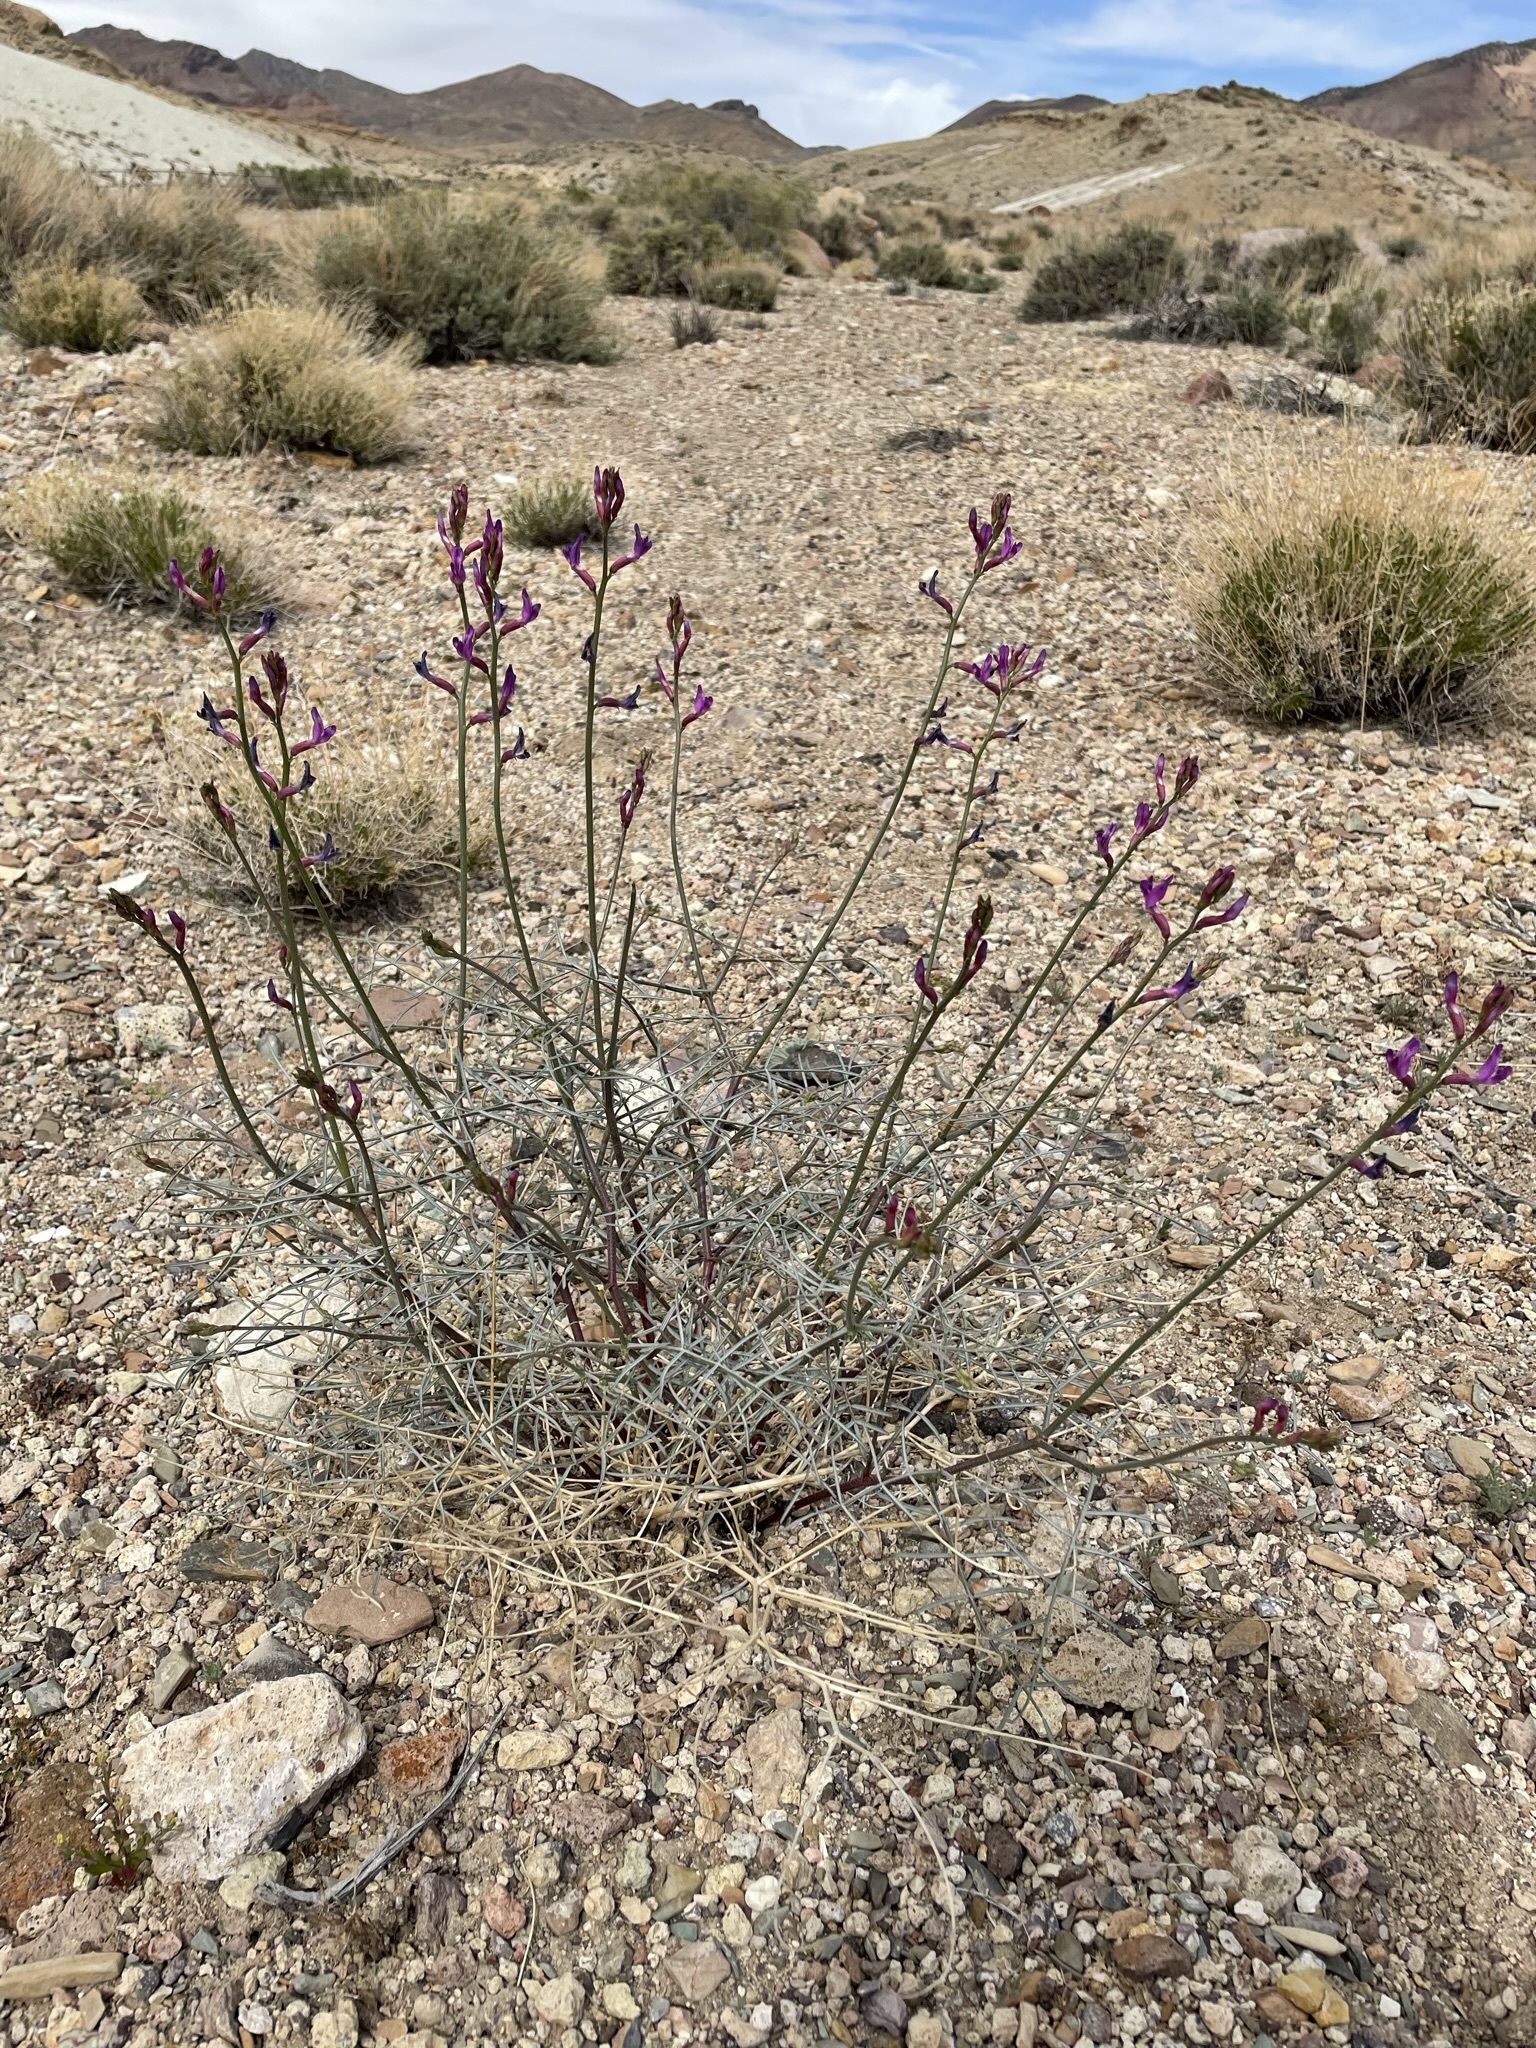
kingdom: Plantae
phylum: Tracheophyta
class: Magnoliopsida
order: Fabales
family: Fabaceae
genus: Astragalus
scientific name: Astragalus serenoi
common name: Naked milk-vetch
